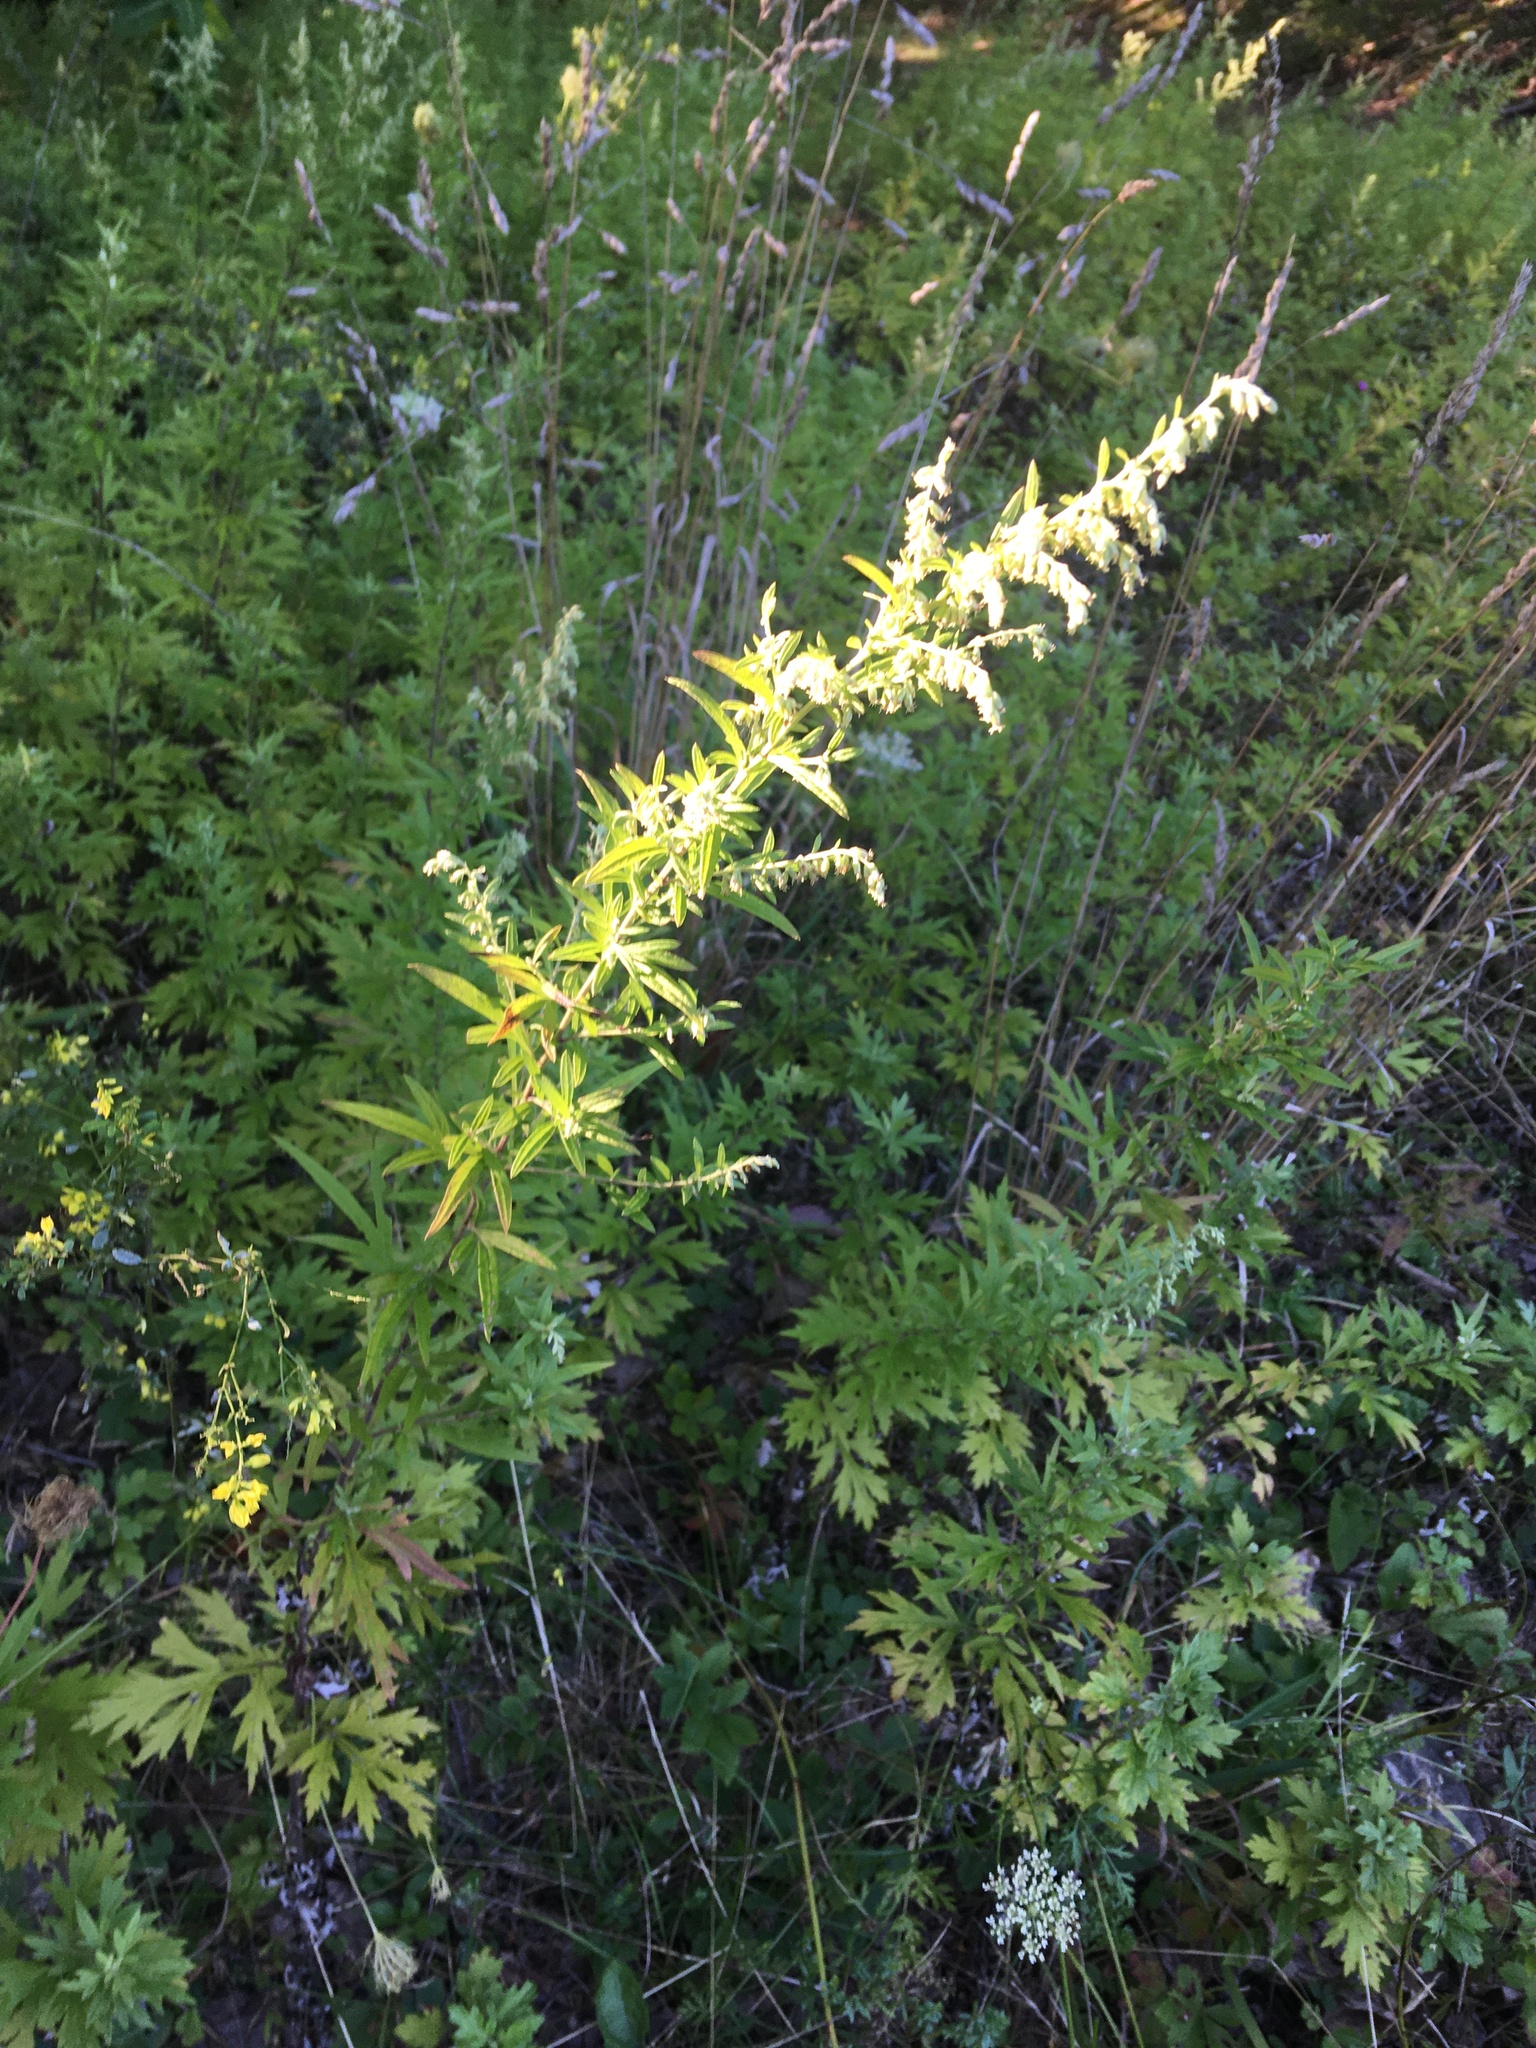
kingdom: Plantae
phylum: Tracheophyta
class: Magnoliopsida
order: Asterales
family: Asteraceae
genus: Artemisia
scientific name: Artemisia vulgaris
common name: Mugwort
